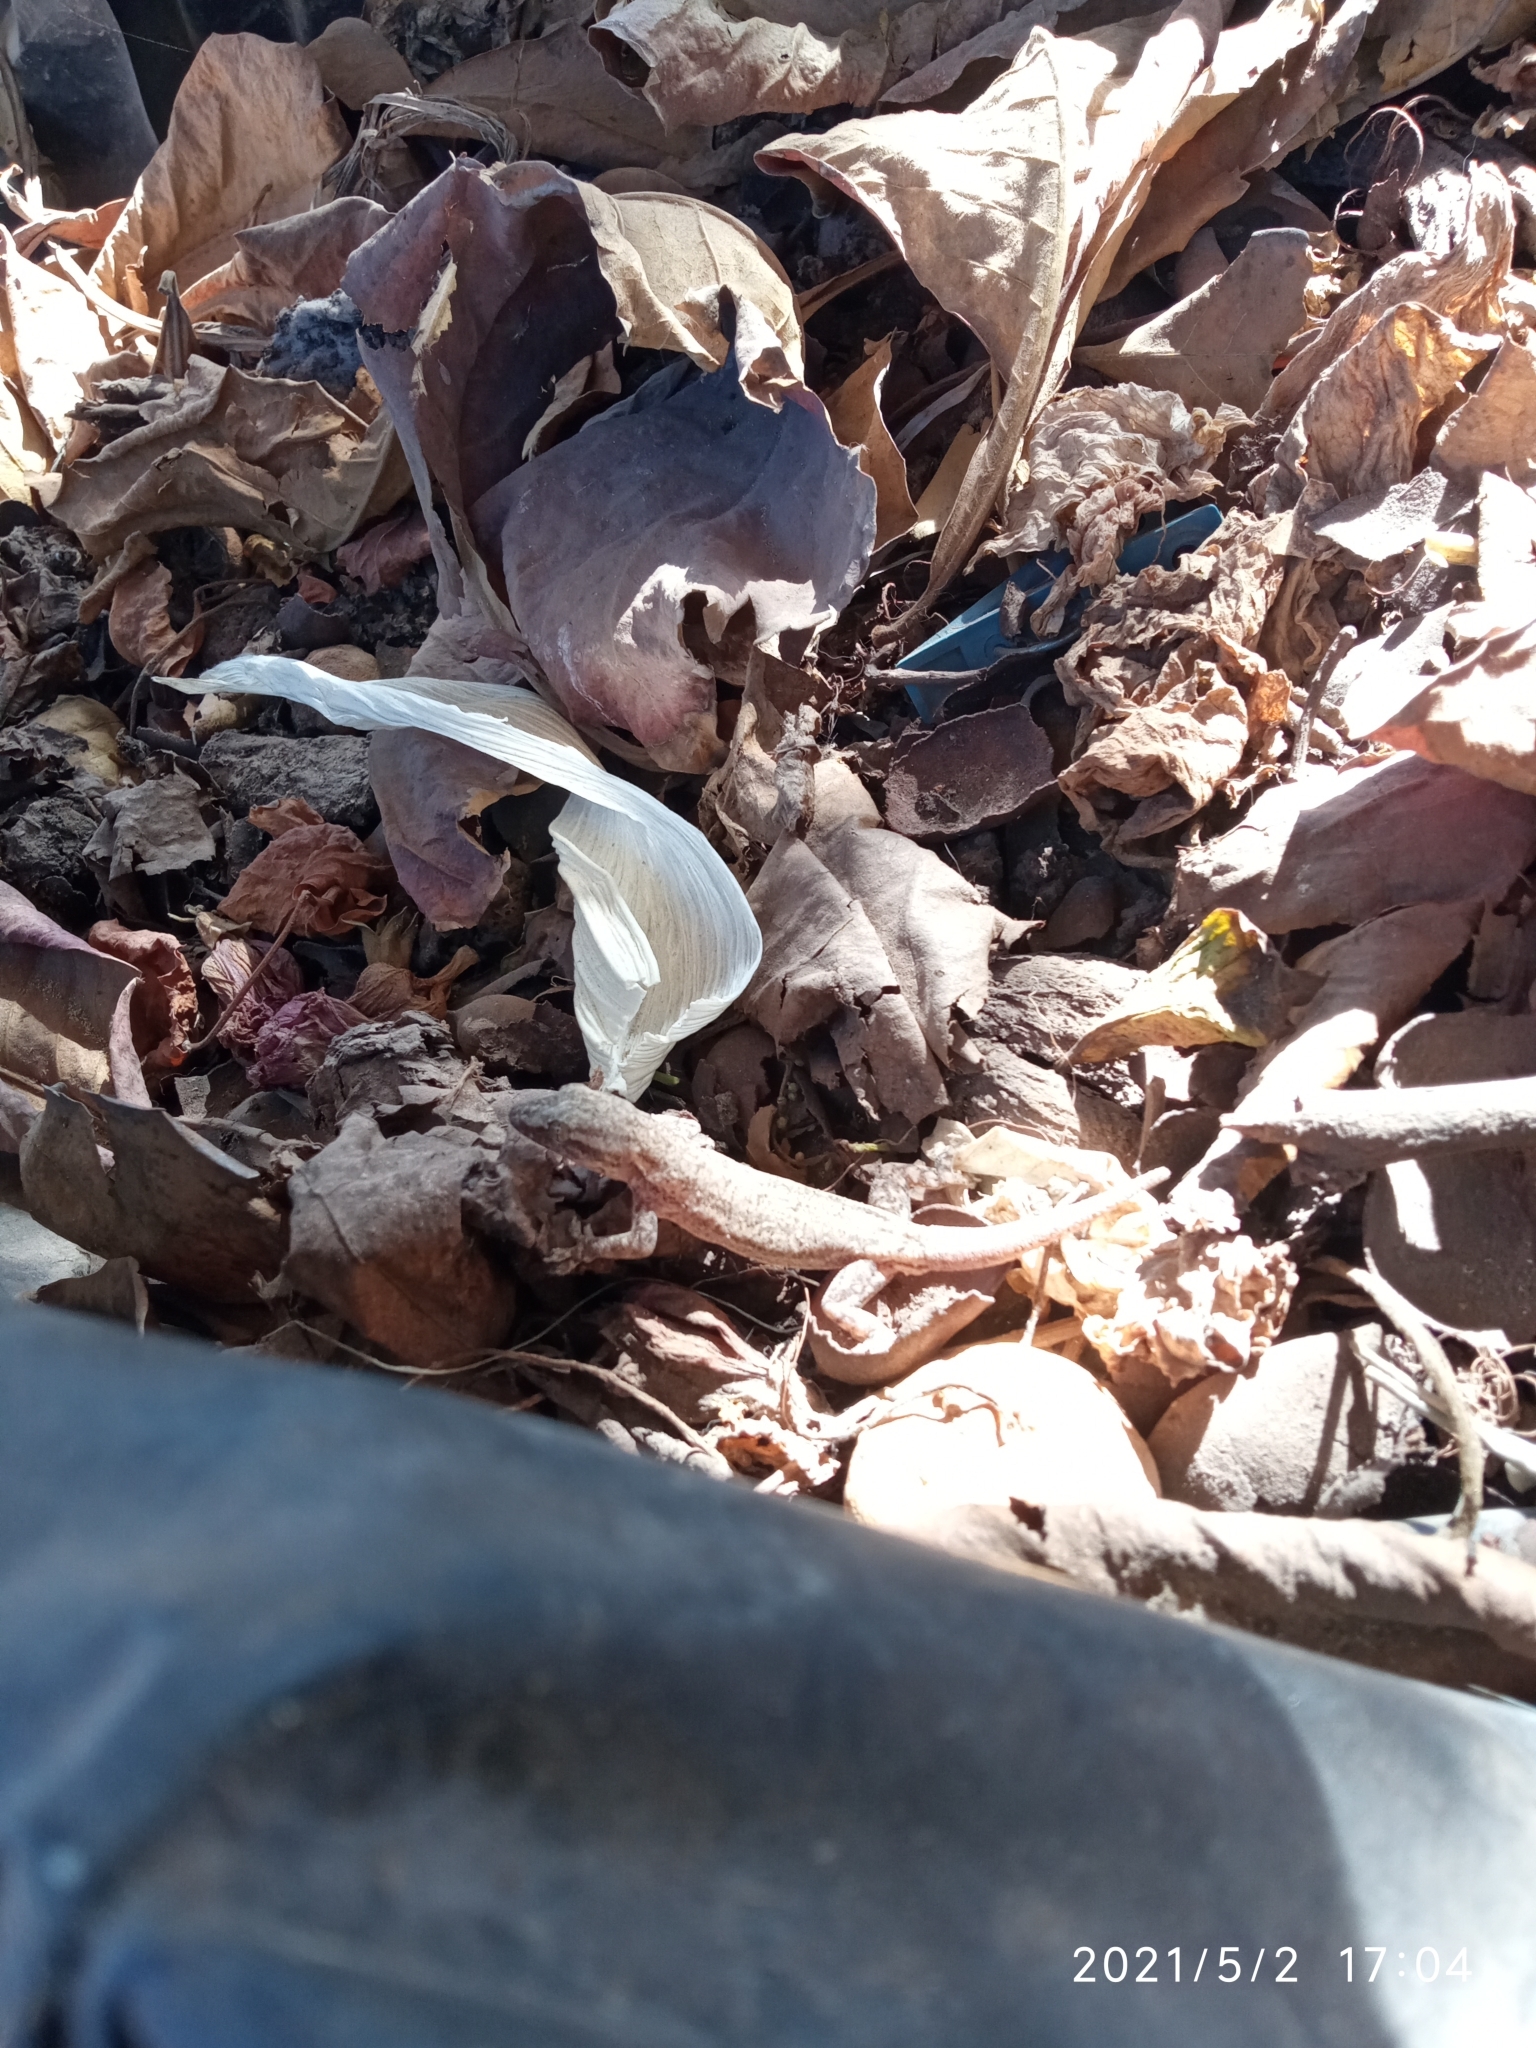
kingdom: Animalia
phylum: Chordata
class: Squamata
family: Gekkonidae
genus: Hemidactylus
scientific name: Hemidactylus frenatus
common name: Common house gecko
